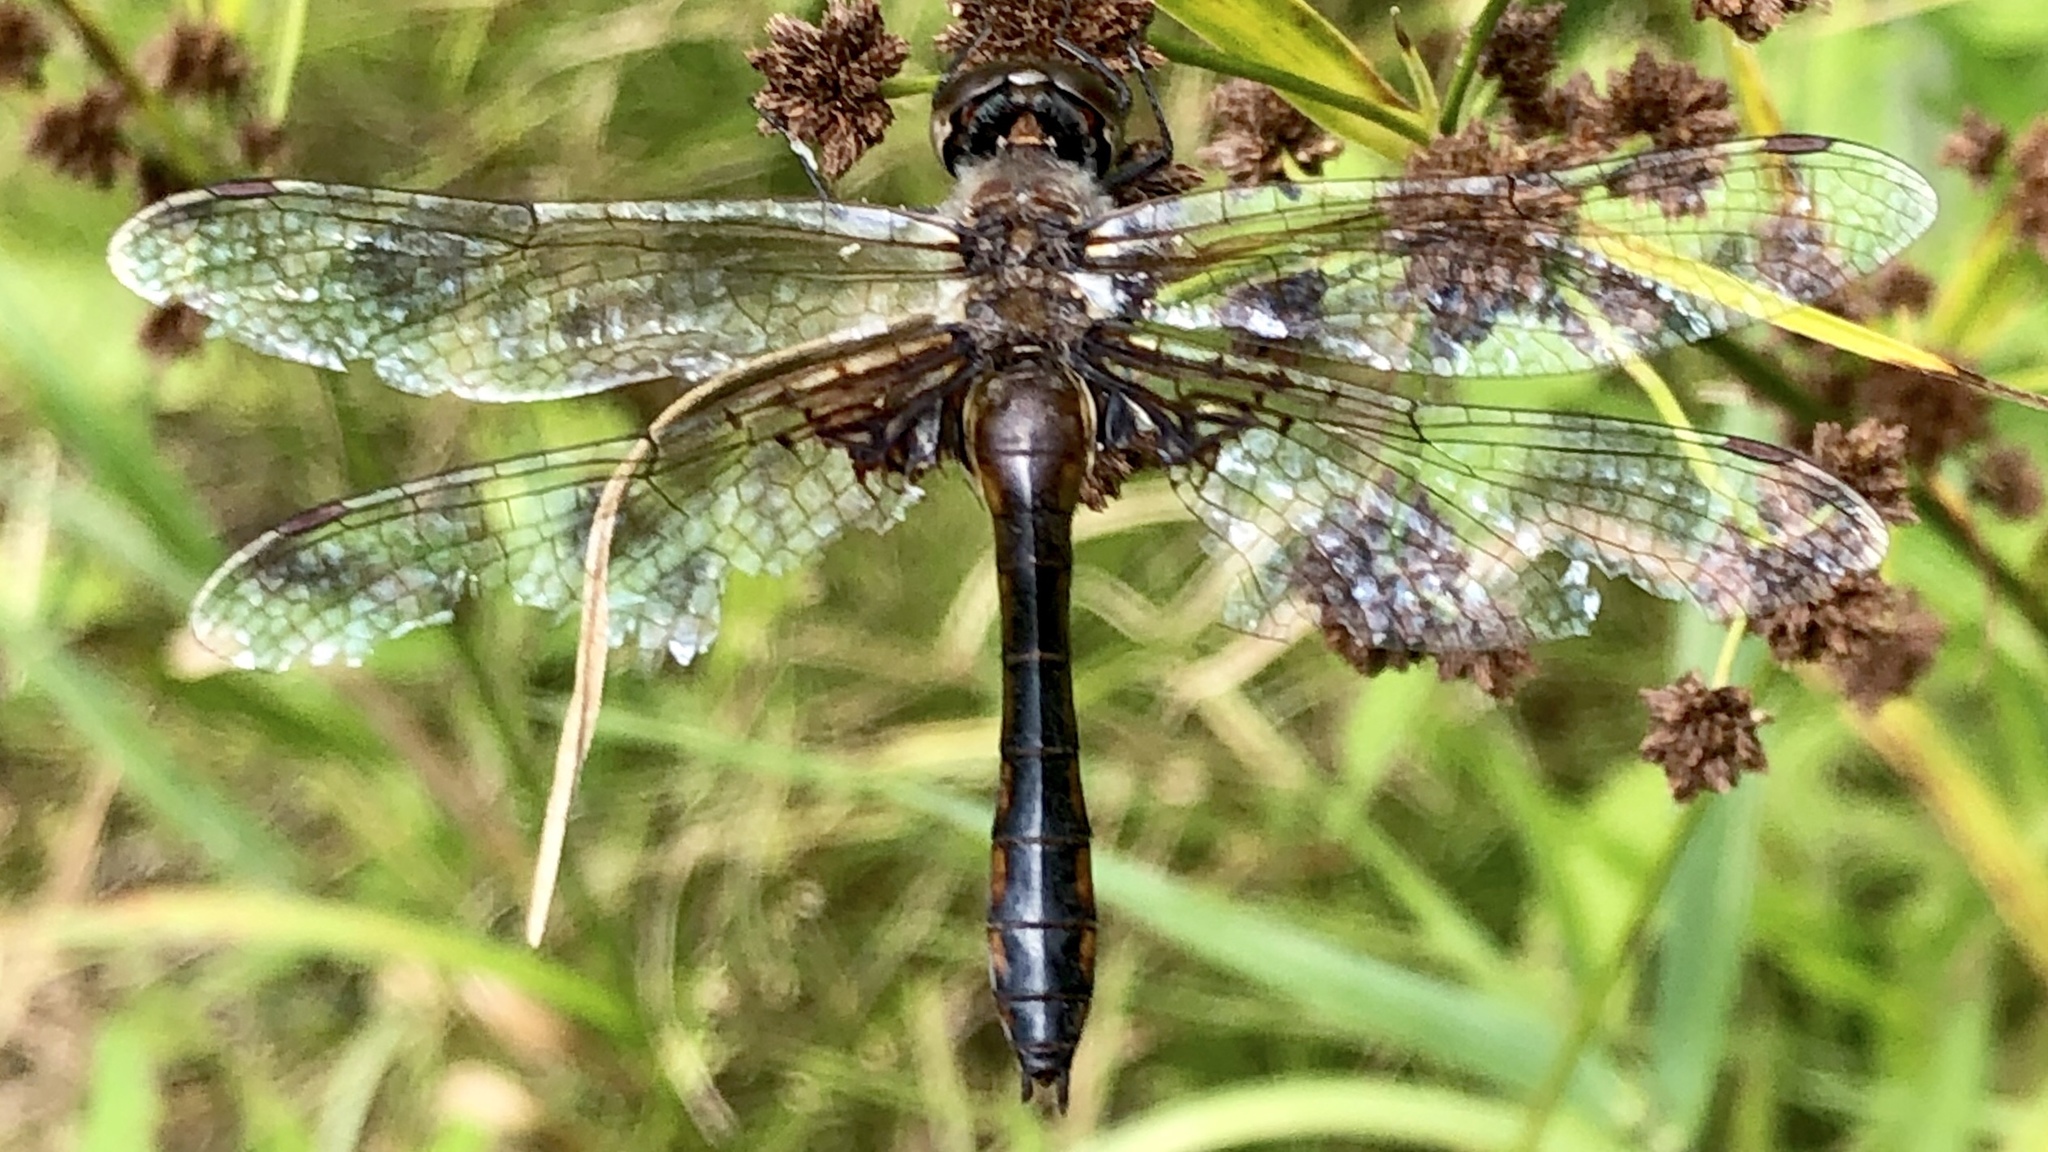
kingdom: Animalia
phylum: Arthropoda
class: Insecta
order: Odonata
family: Corduliidae
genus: Epitheca
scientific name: Epitheca cynosura
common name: Common baskettail
